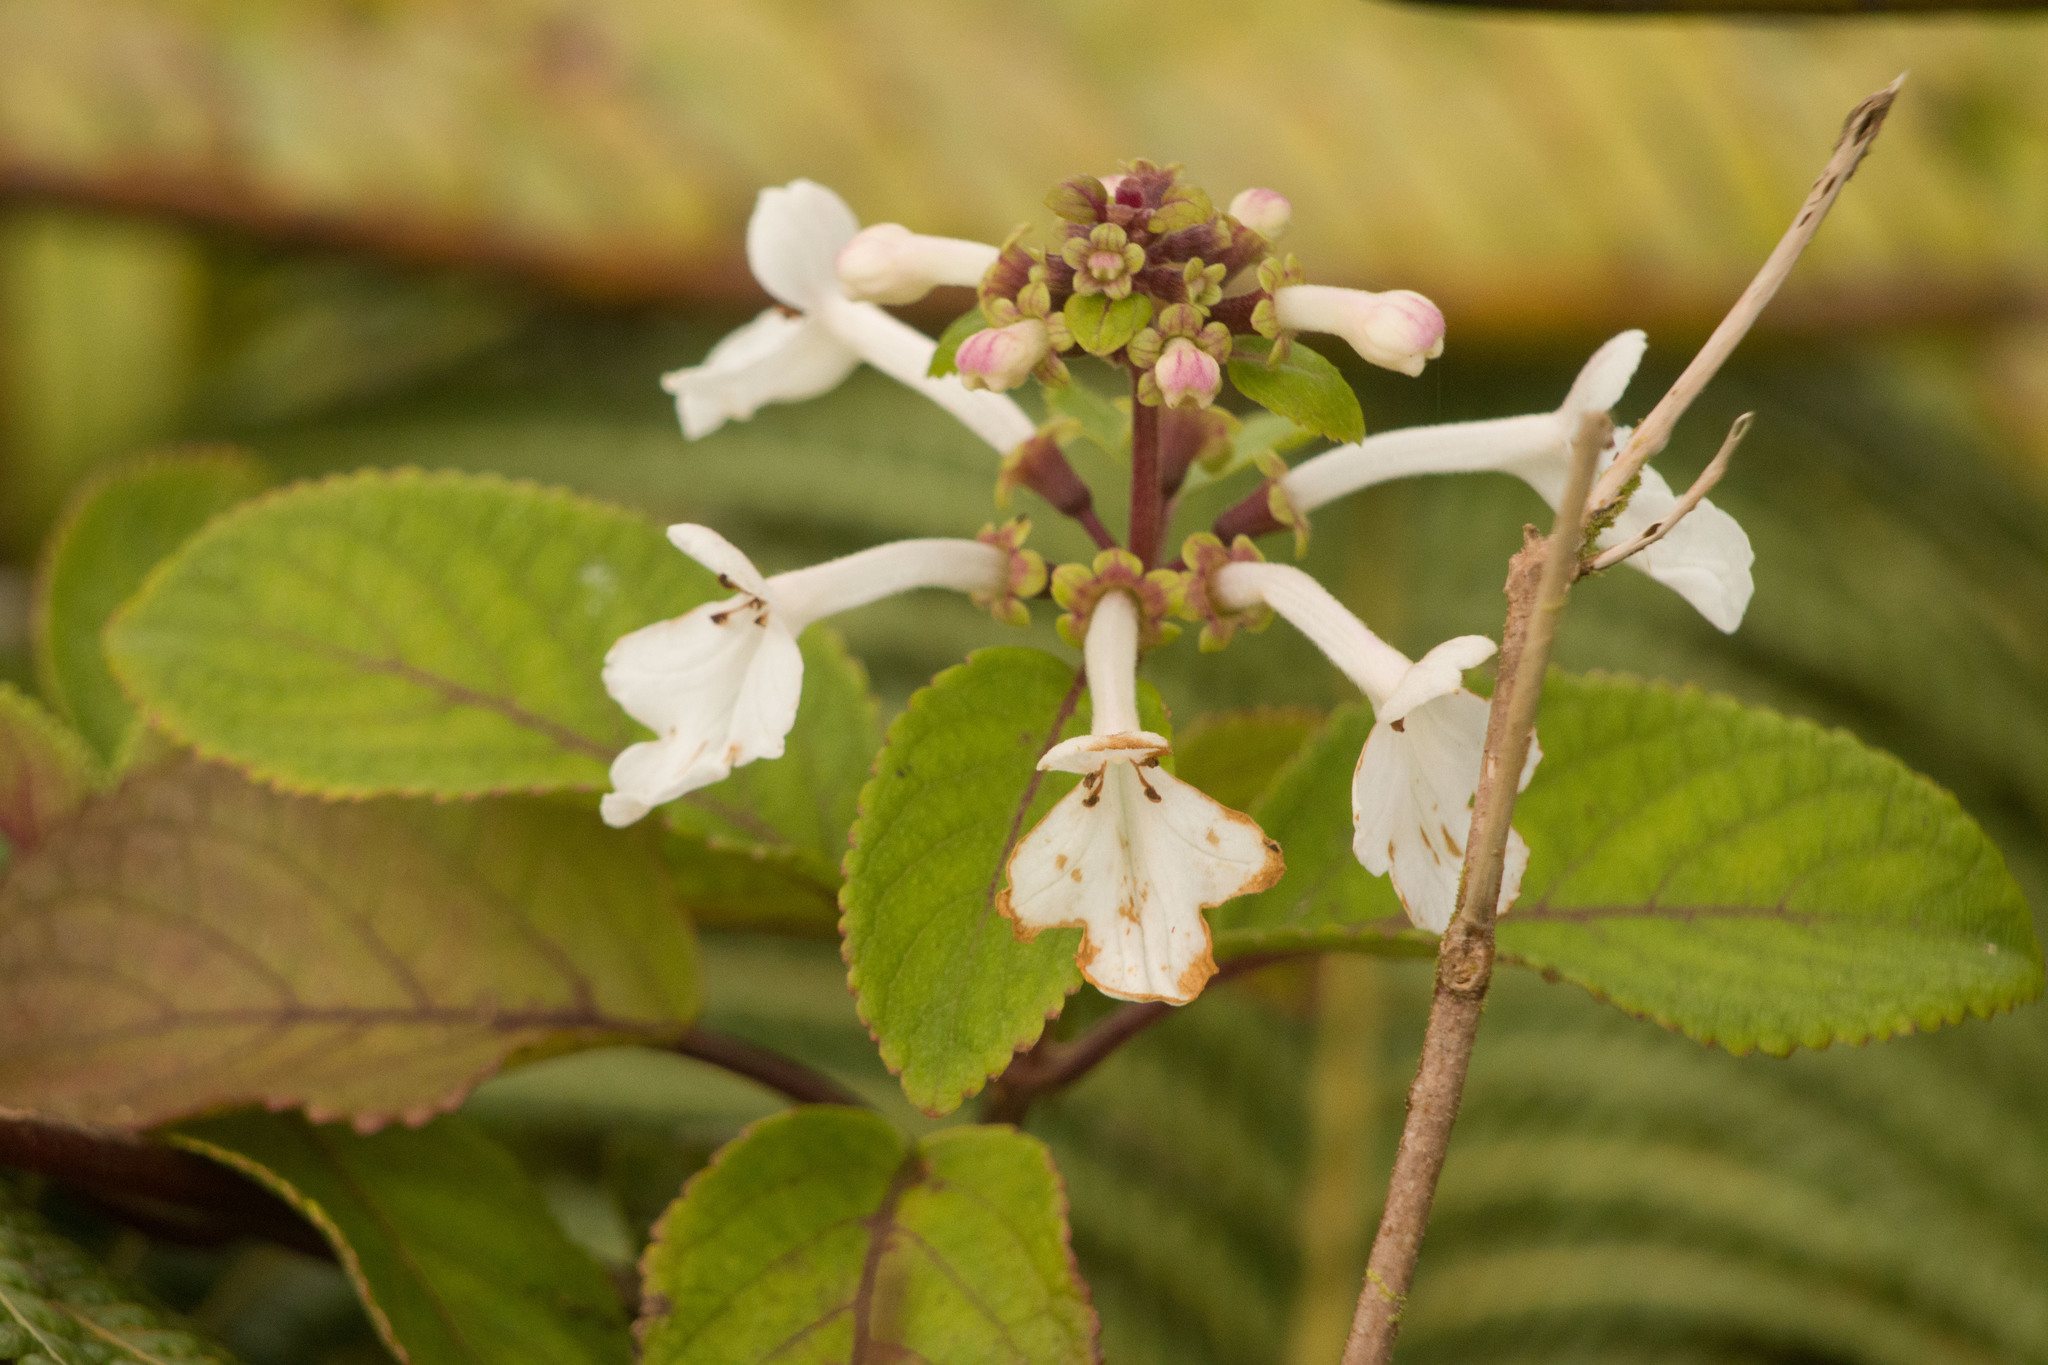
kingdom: Plantae
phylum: Tracheophyta
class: Magnoliopsida
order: Lamiales
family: Lamiaceae
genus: Phyllostegia
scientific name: Phyllostegia grandiflora
